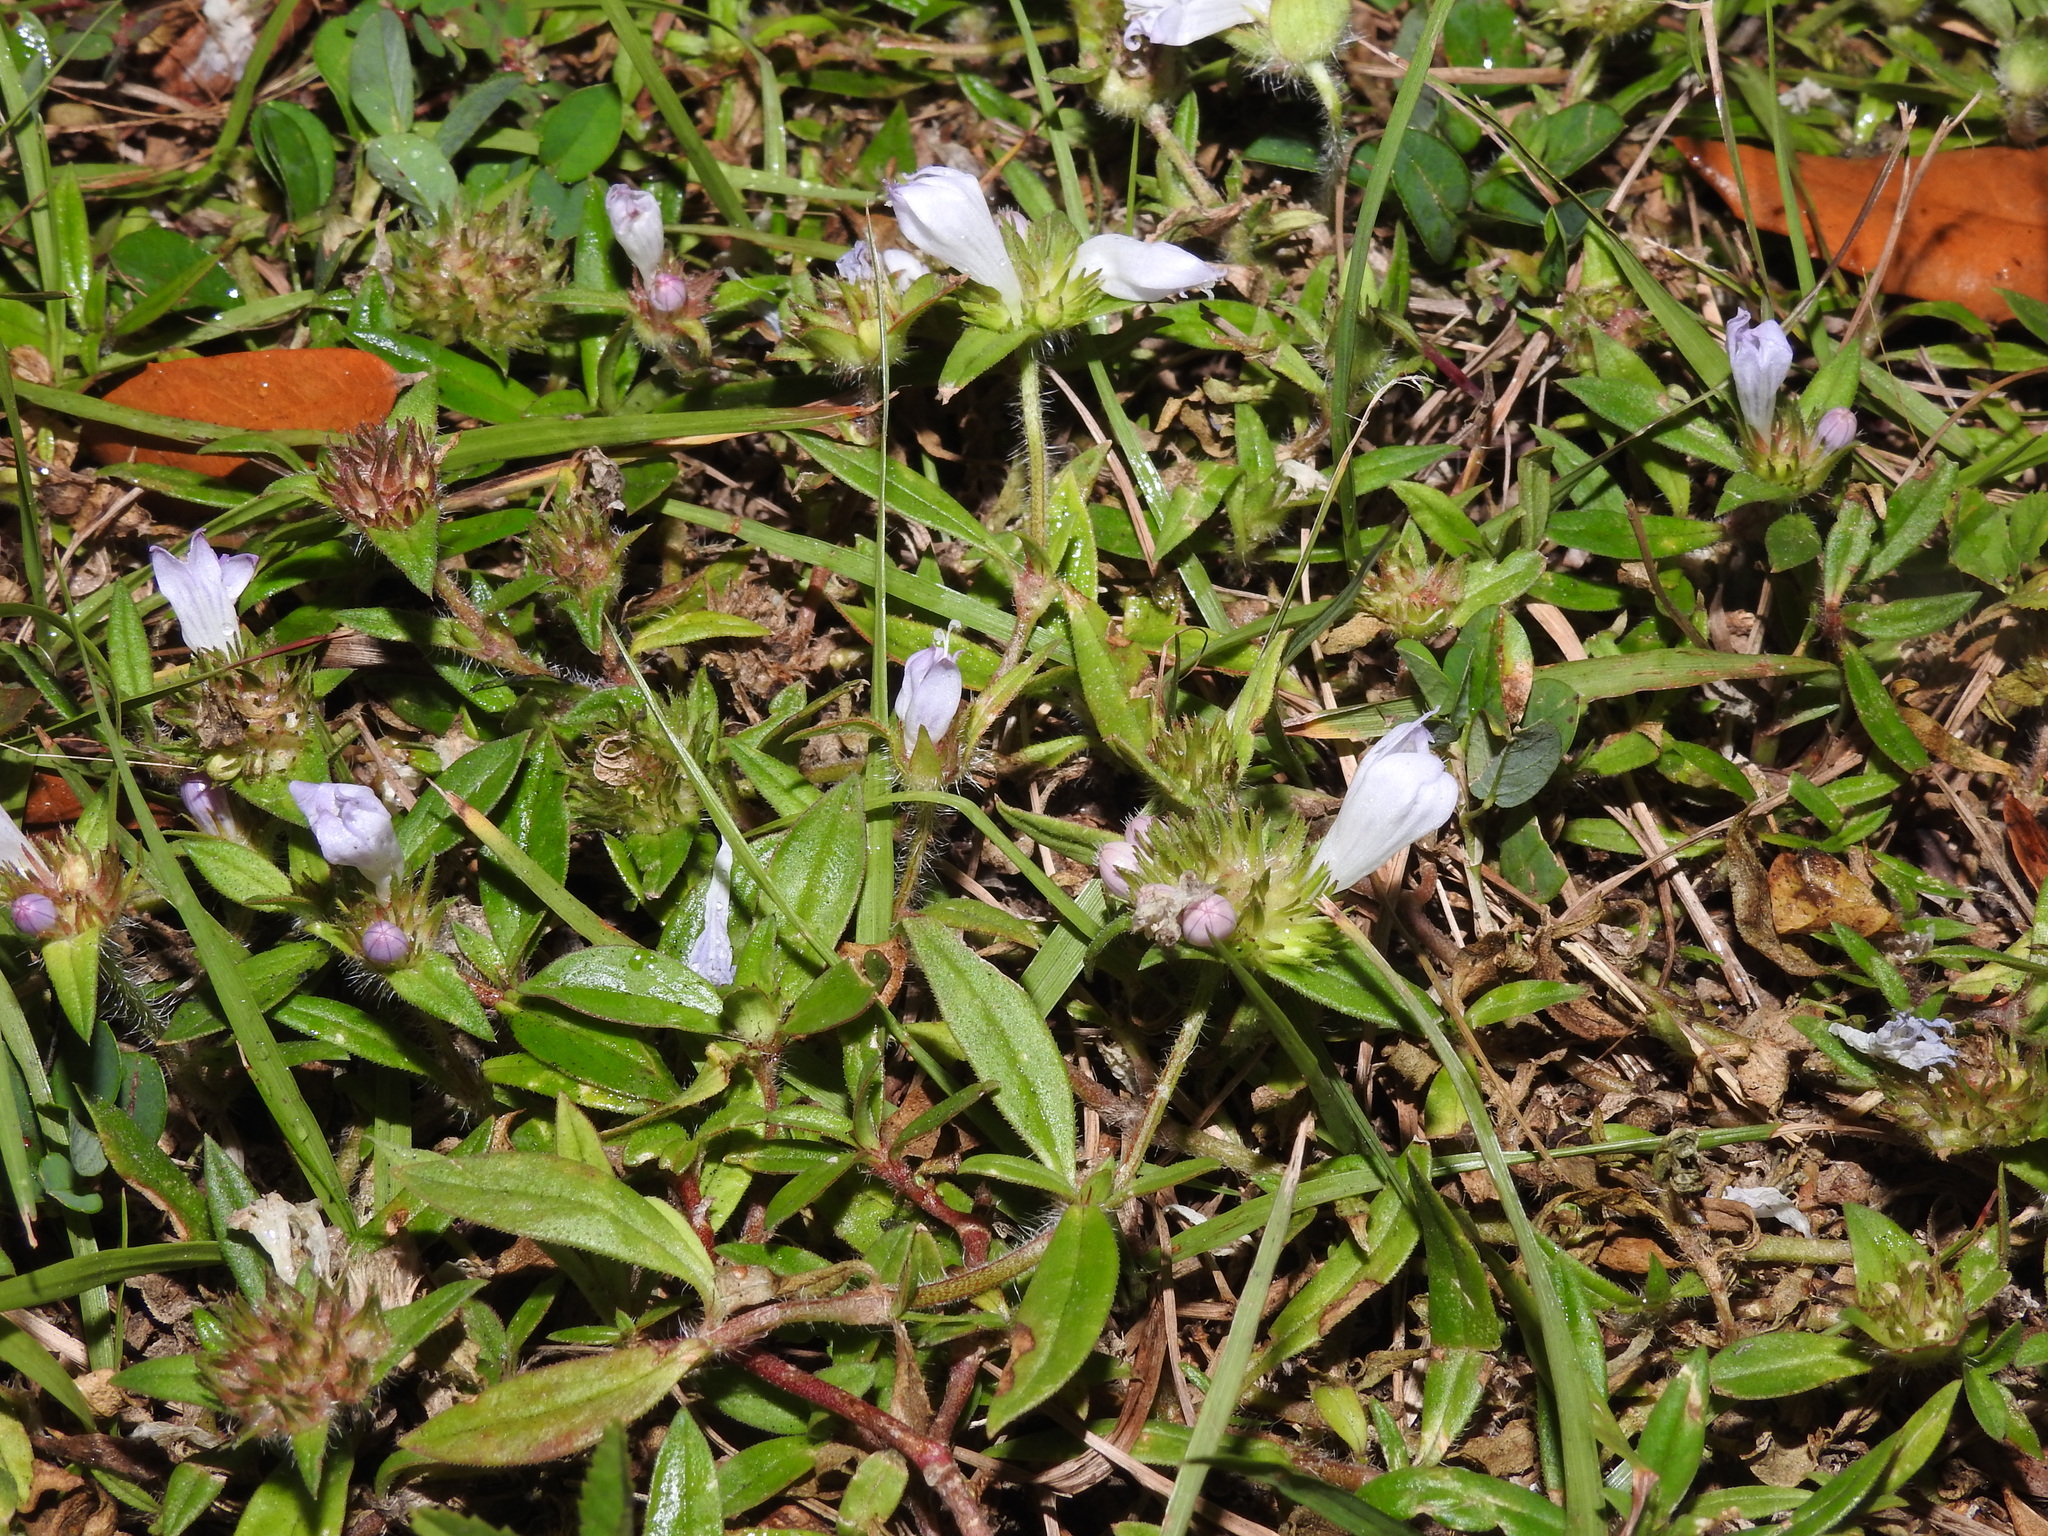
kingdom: Plantae
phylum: Tracheophyta
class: Magnoliopsida
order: Gentianales
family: Rubiaceae
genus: Richardia
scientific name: Richardia grandiflora
